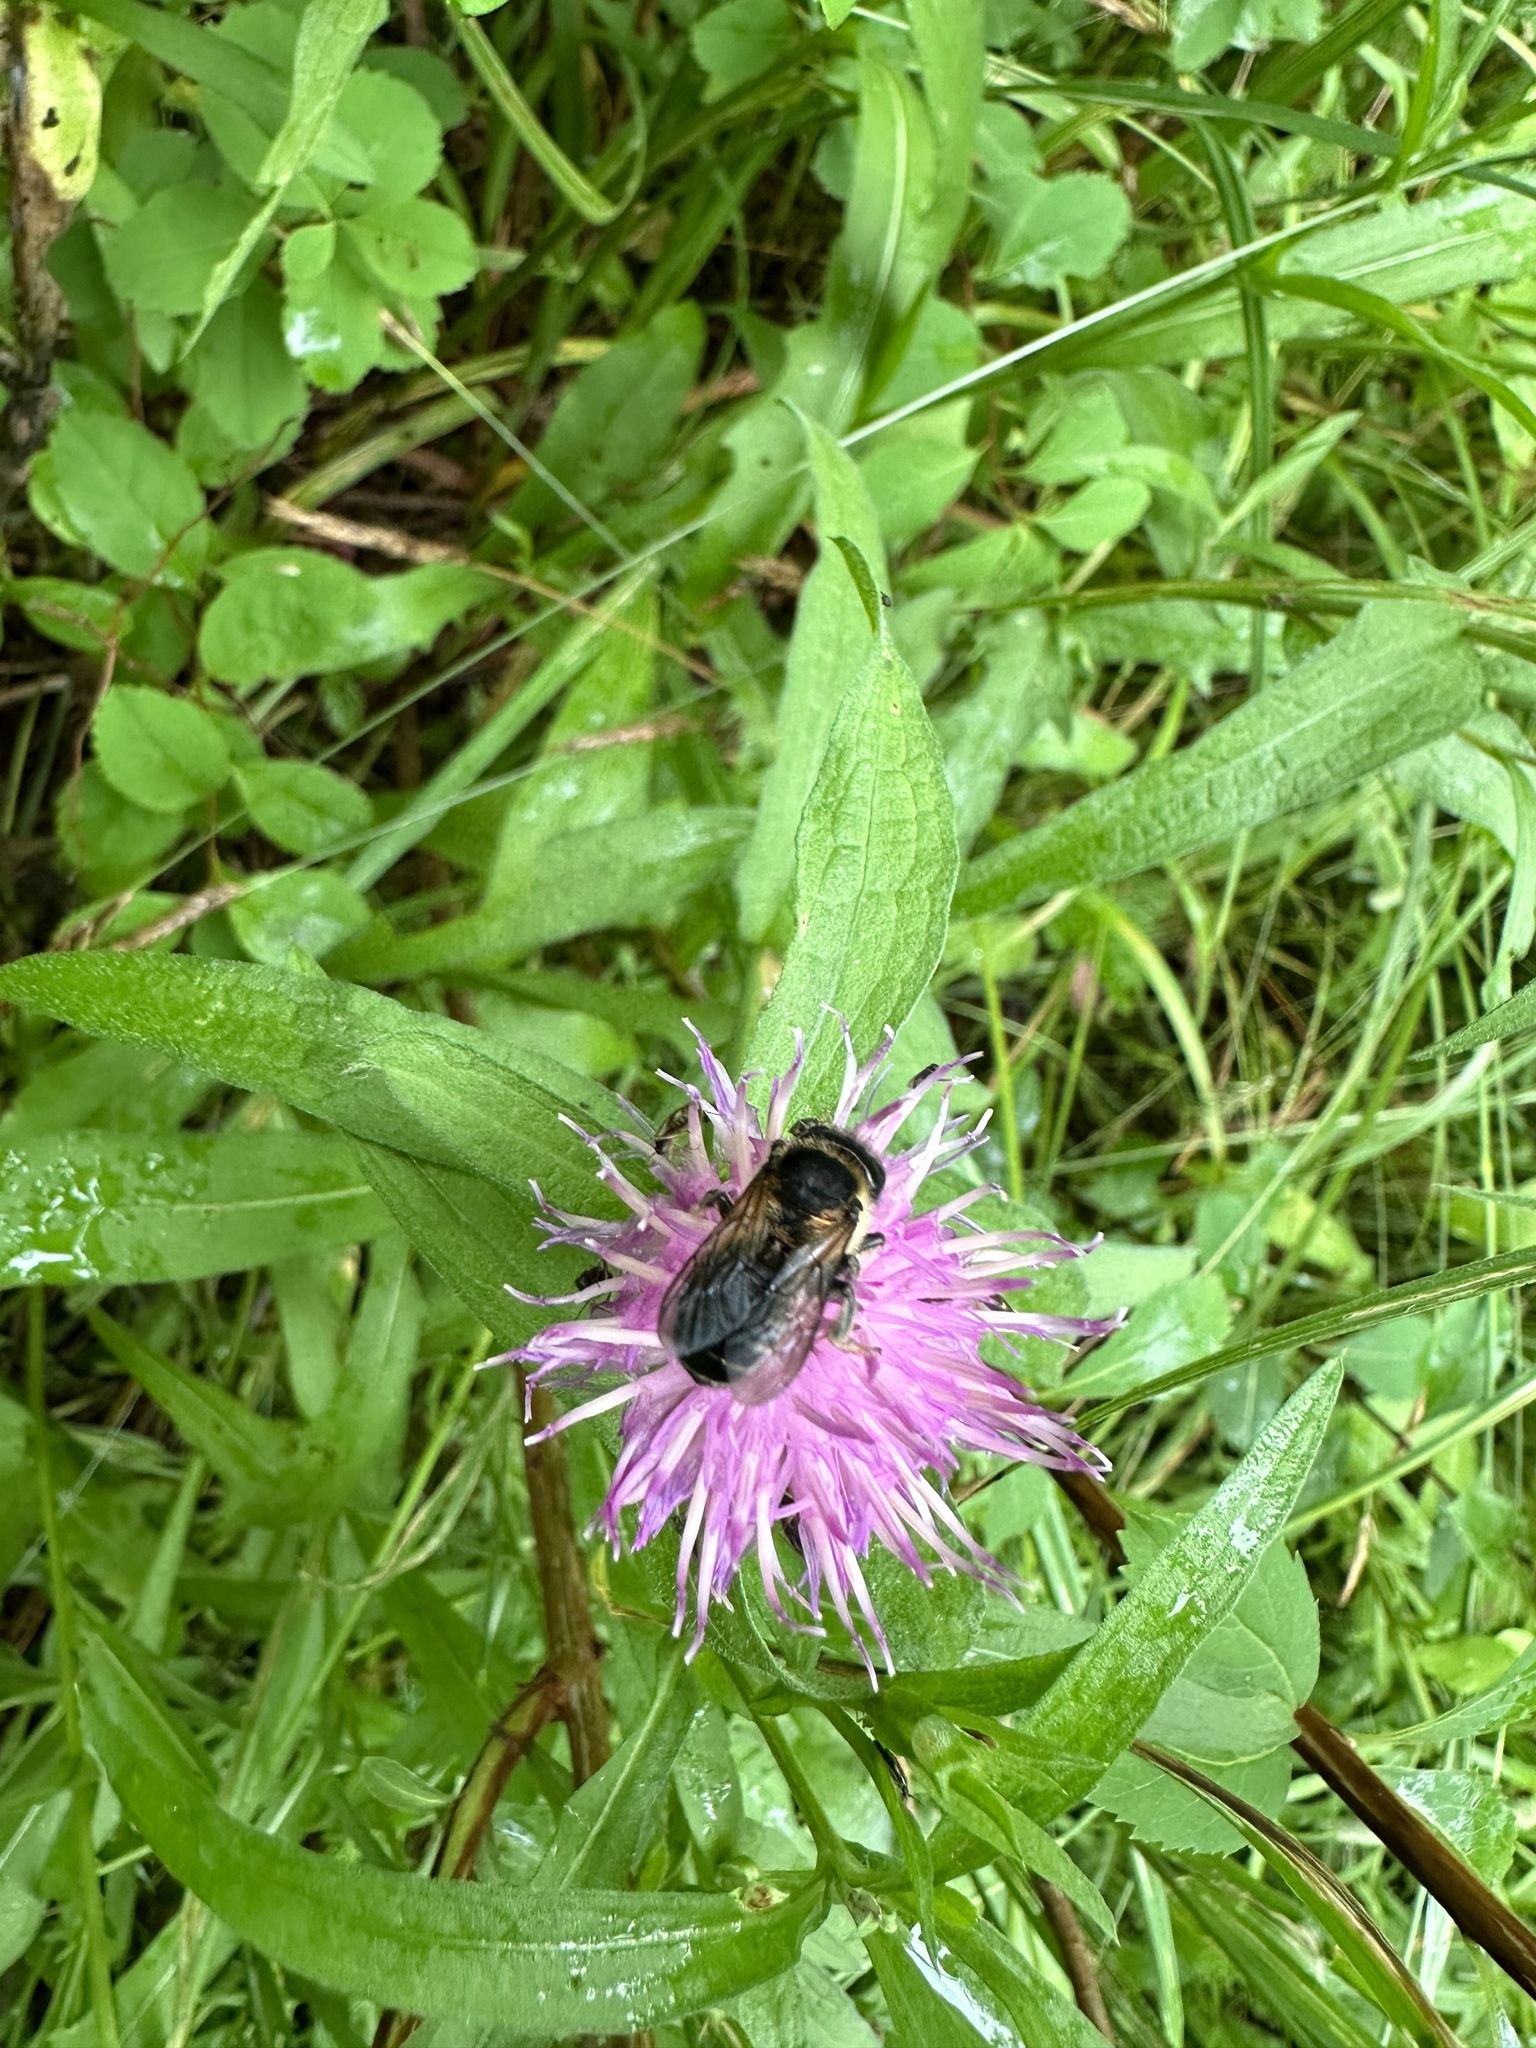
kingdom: Animalia
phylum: Arthropoda
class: Insecta
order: Hymenoptera
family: Megachilidae
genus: Megachile
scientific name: Megachile inermis
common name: Unarmed leafcutter bee
